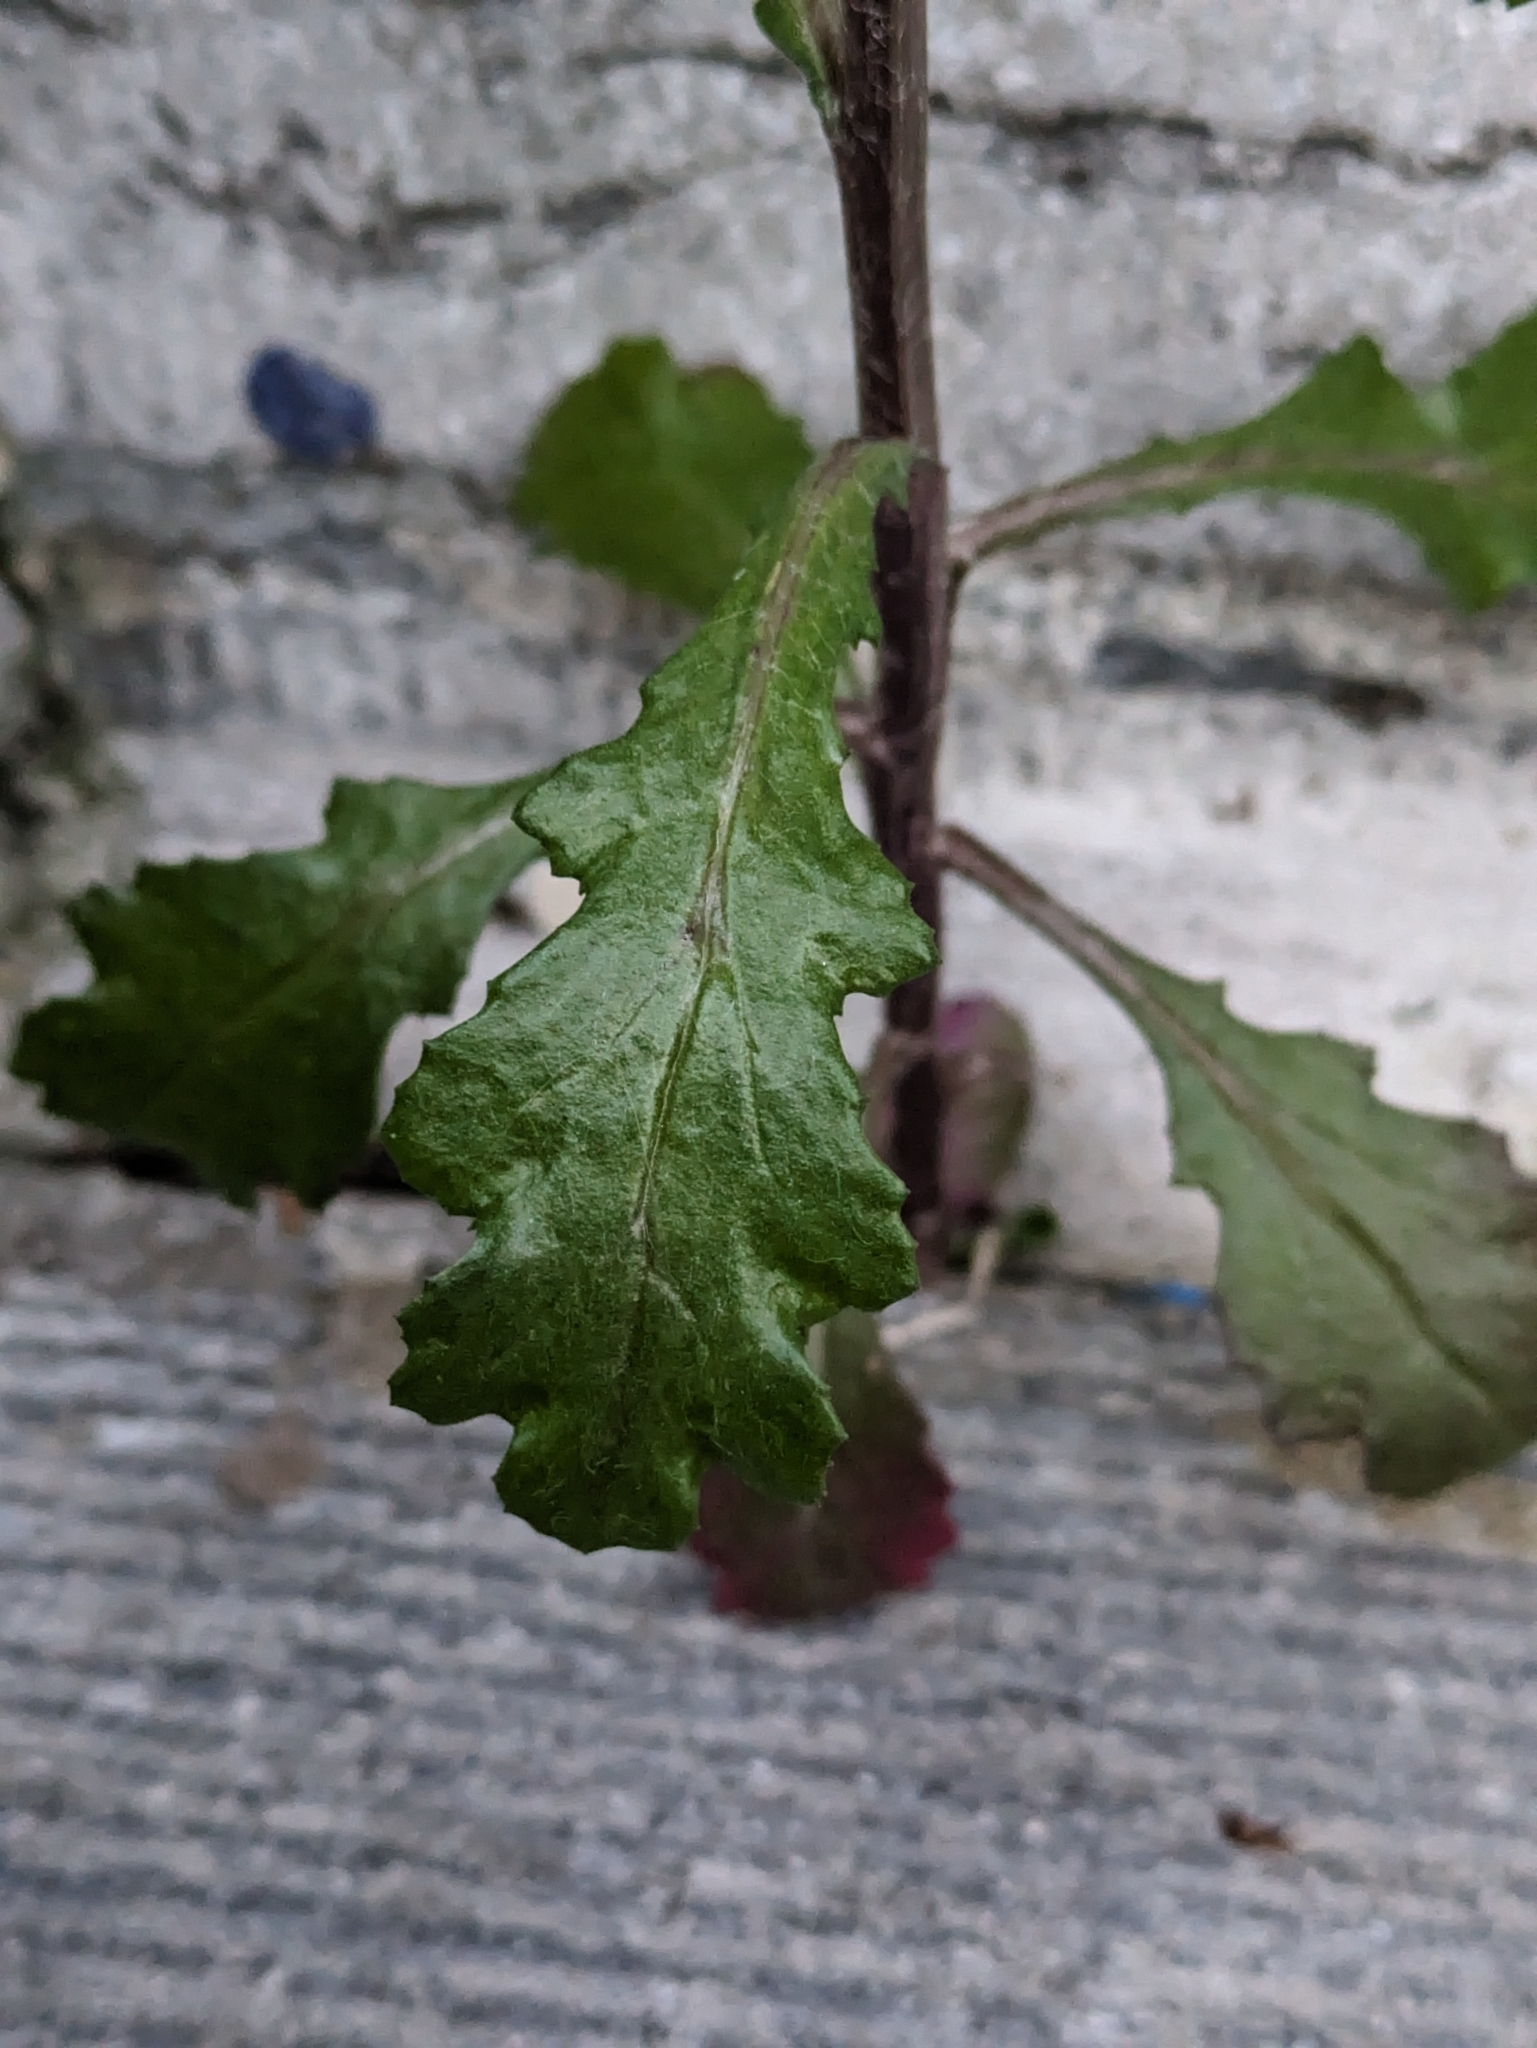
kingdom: Plantae
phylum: Tracheophyta
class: Magnoliopsida
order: Asterales
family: Asteraceae
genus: Senecio
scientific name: Senecio vulgaris
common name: Old-man-in-the-spring
